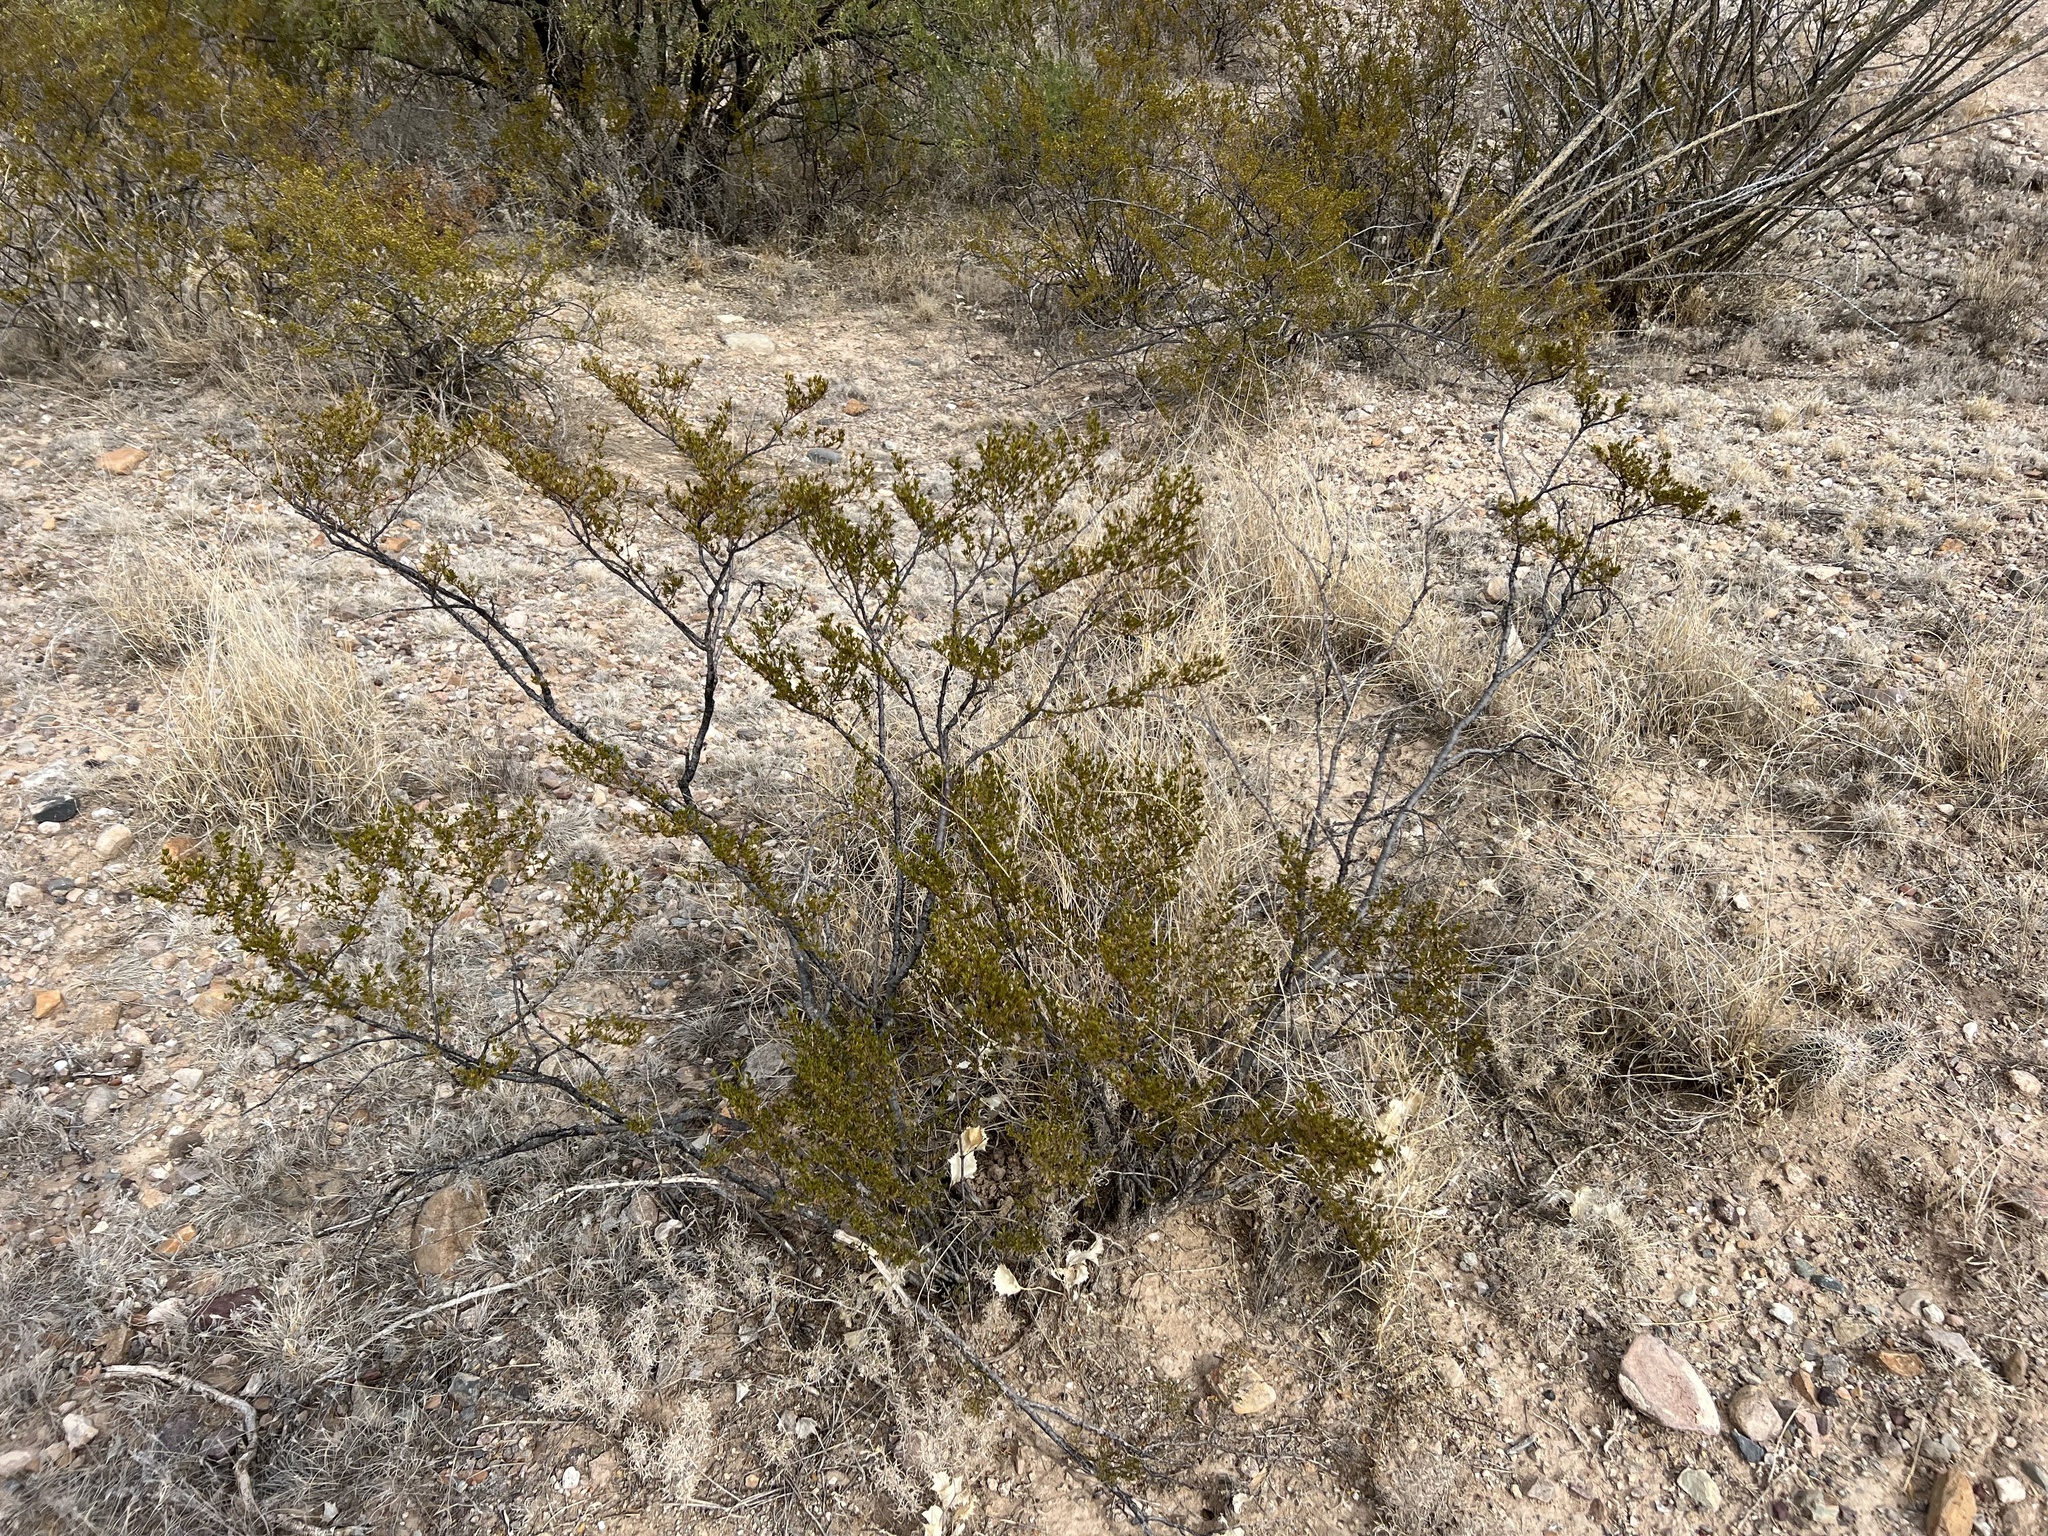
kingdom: Plantae
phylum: Tracheophyta
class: Magnoliopsida
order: Zygophyllales
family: Zygophyllaceae
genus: Larrea
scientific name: Larrea tridentata
